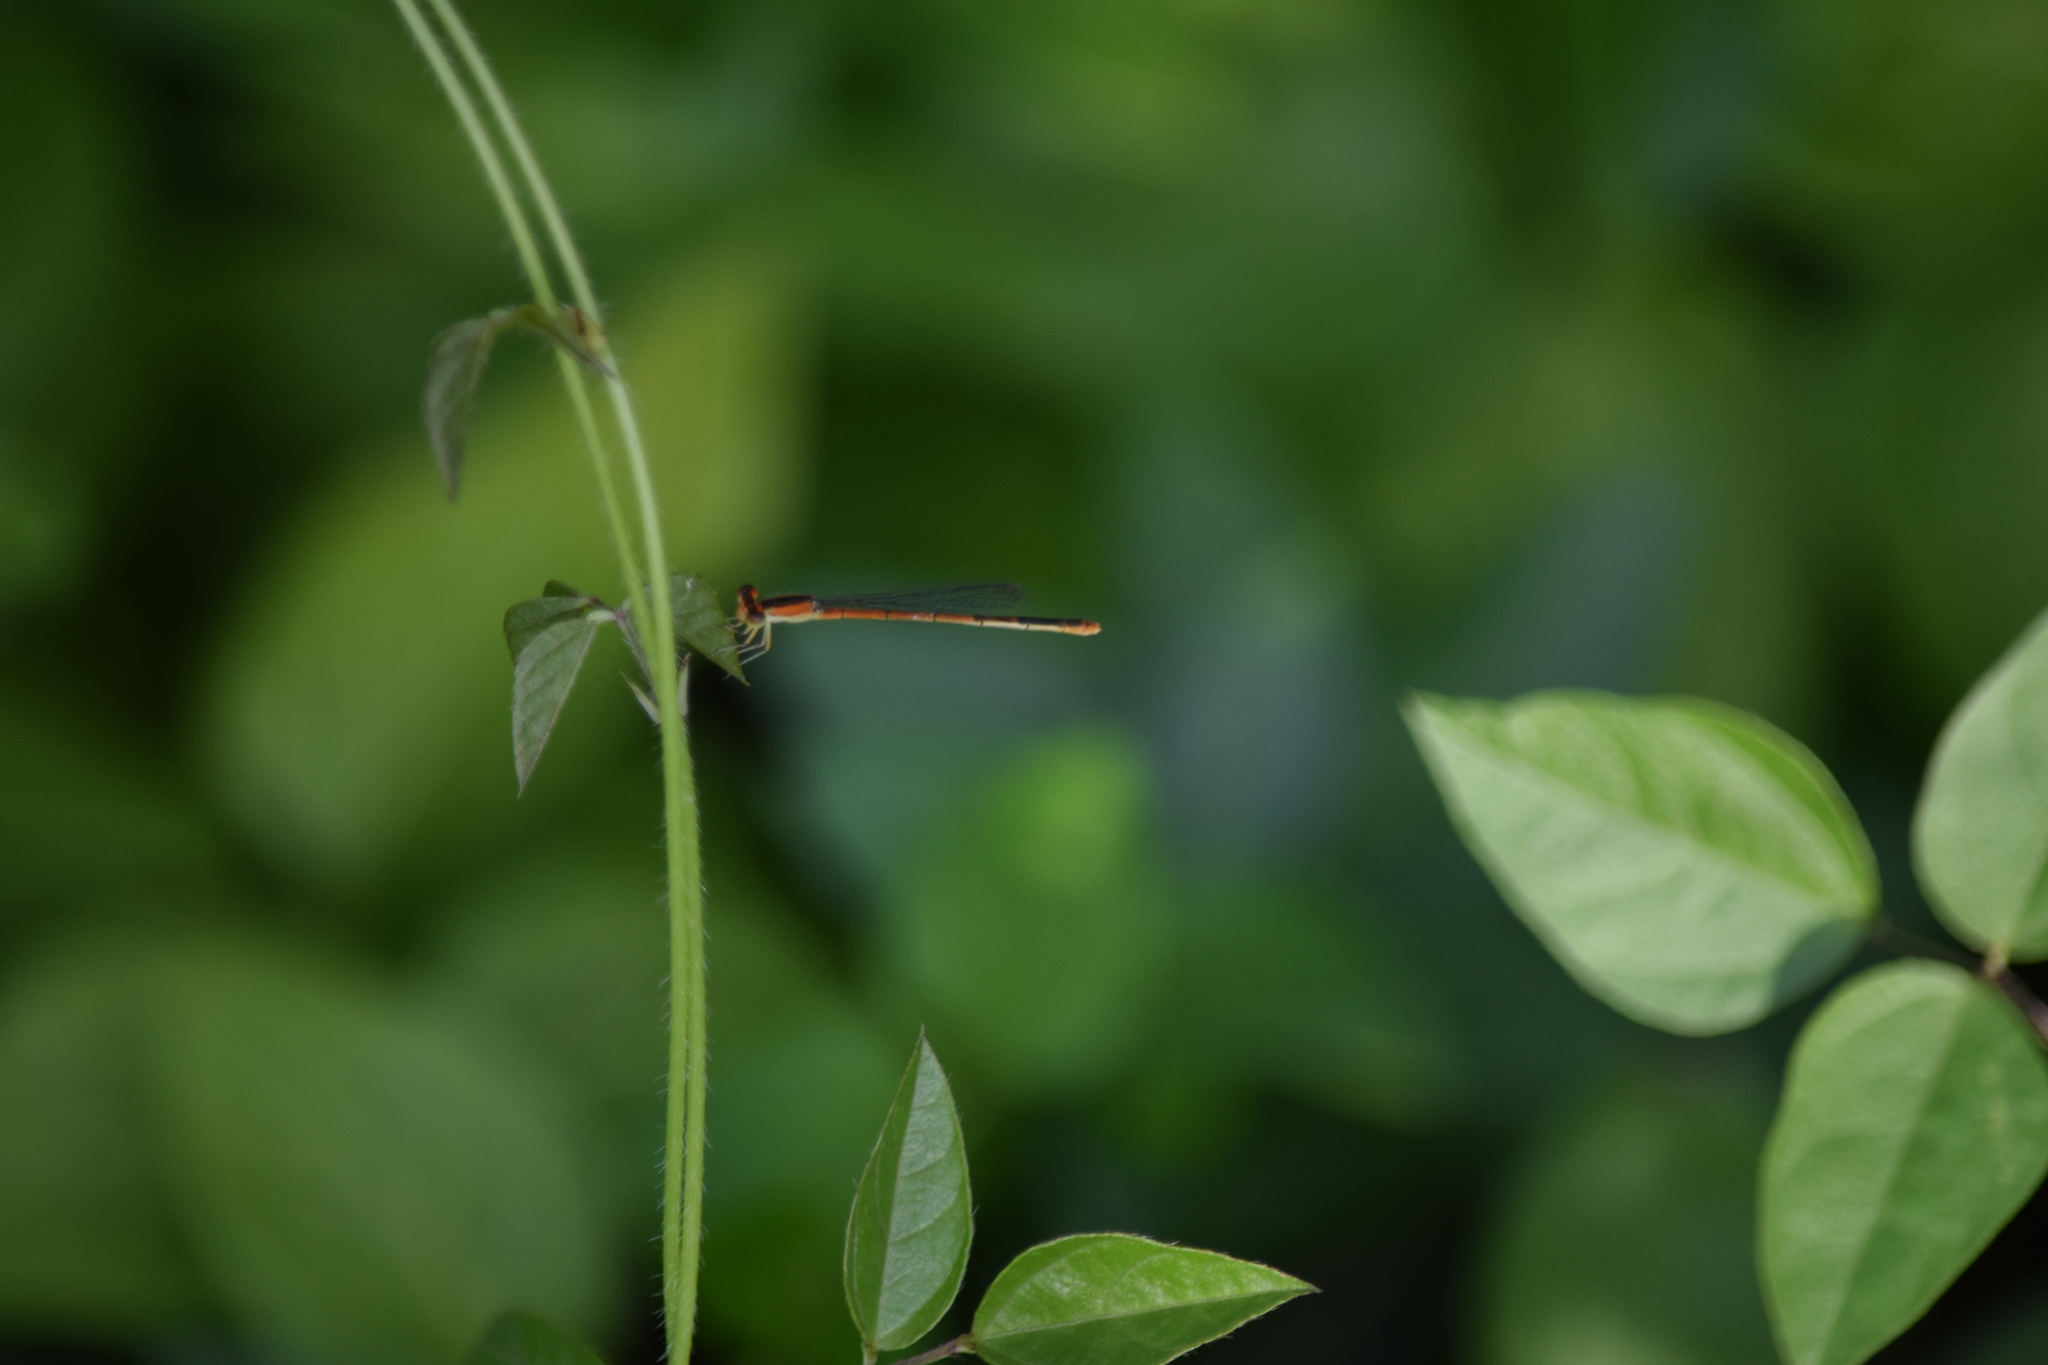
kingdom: Animalia
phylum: Arthropoda
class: Insecta
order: Odonata
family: Coenagrionidae
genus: Ischnura
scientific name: Ischnura hastata
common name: Citrine forktail
